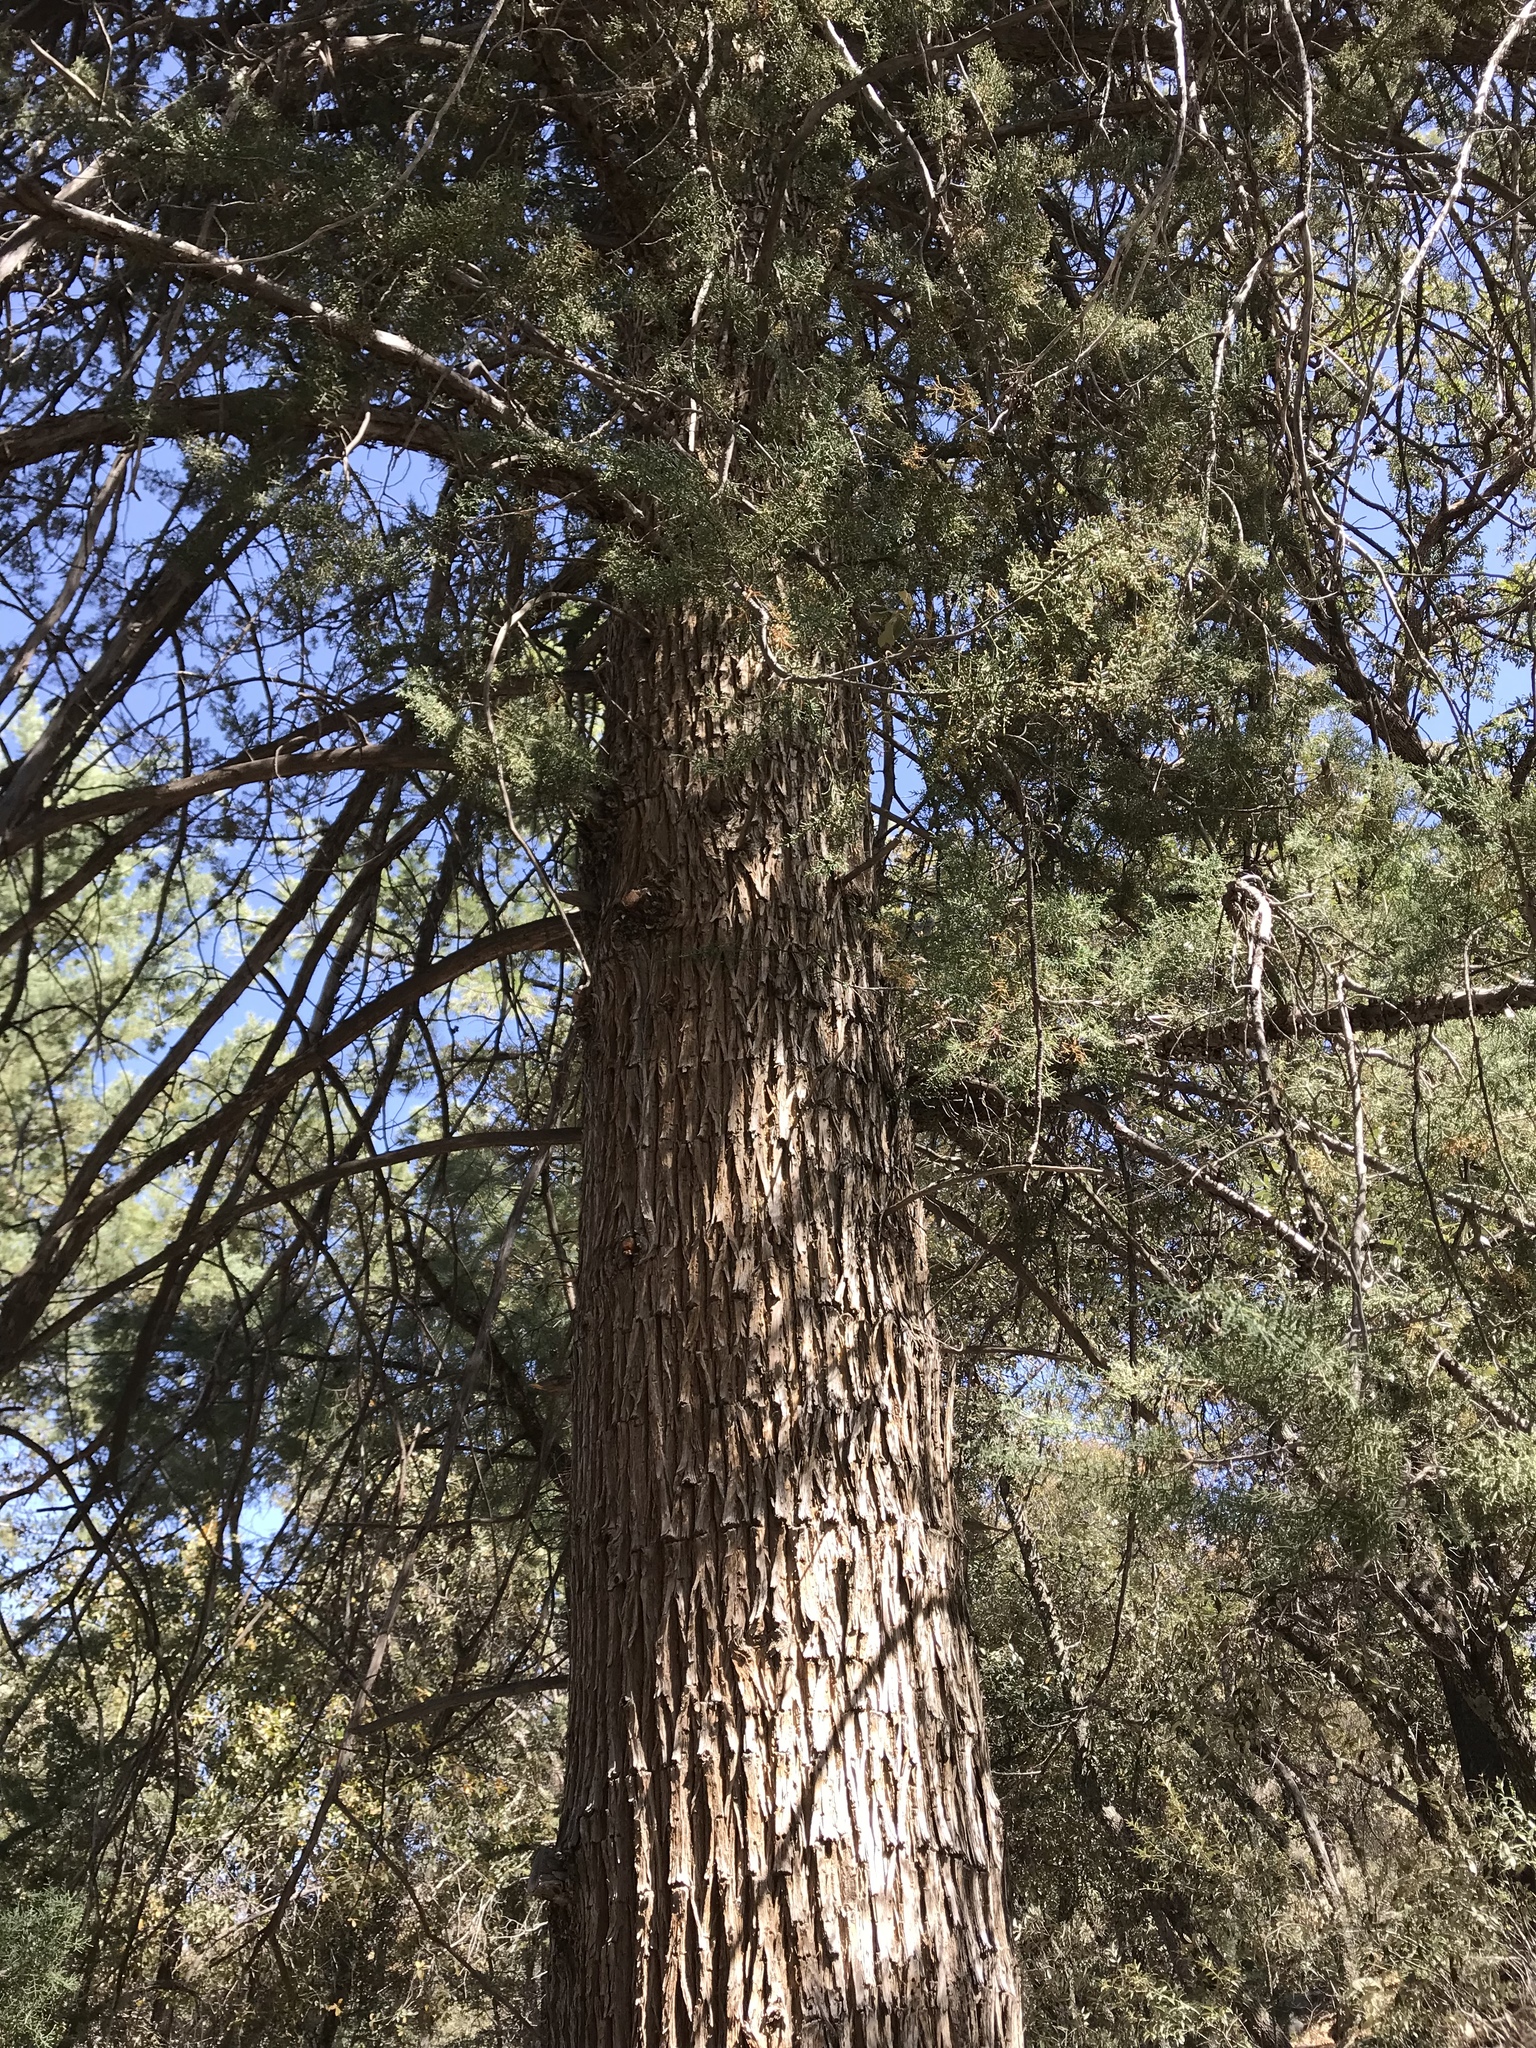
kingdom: Plantae
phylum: Tracheophyta
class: Pinopsida
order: Pinales
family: Cupressaceae
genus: Cupressus
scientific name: Cupressus arizonica
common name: Arizona cypress
